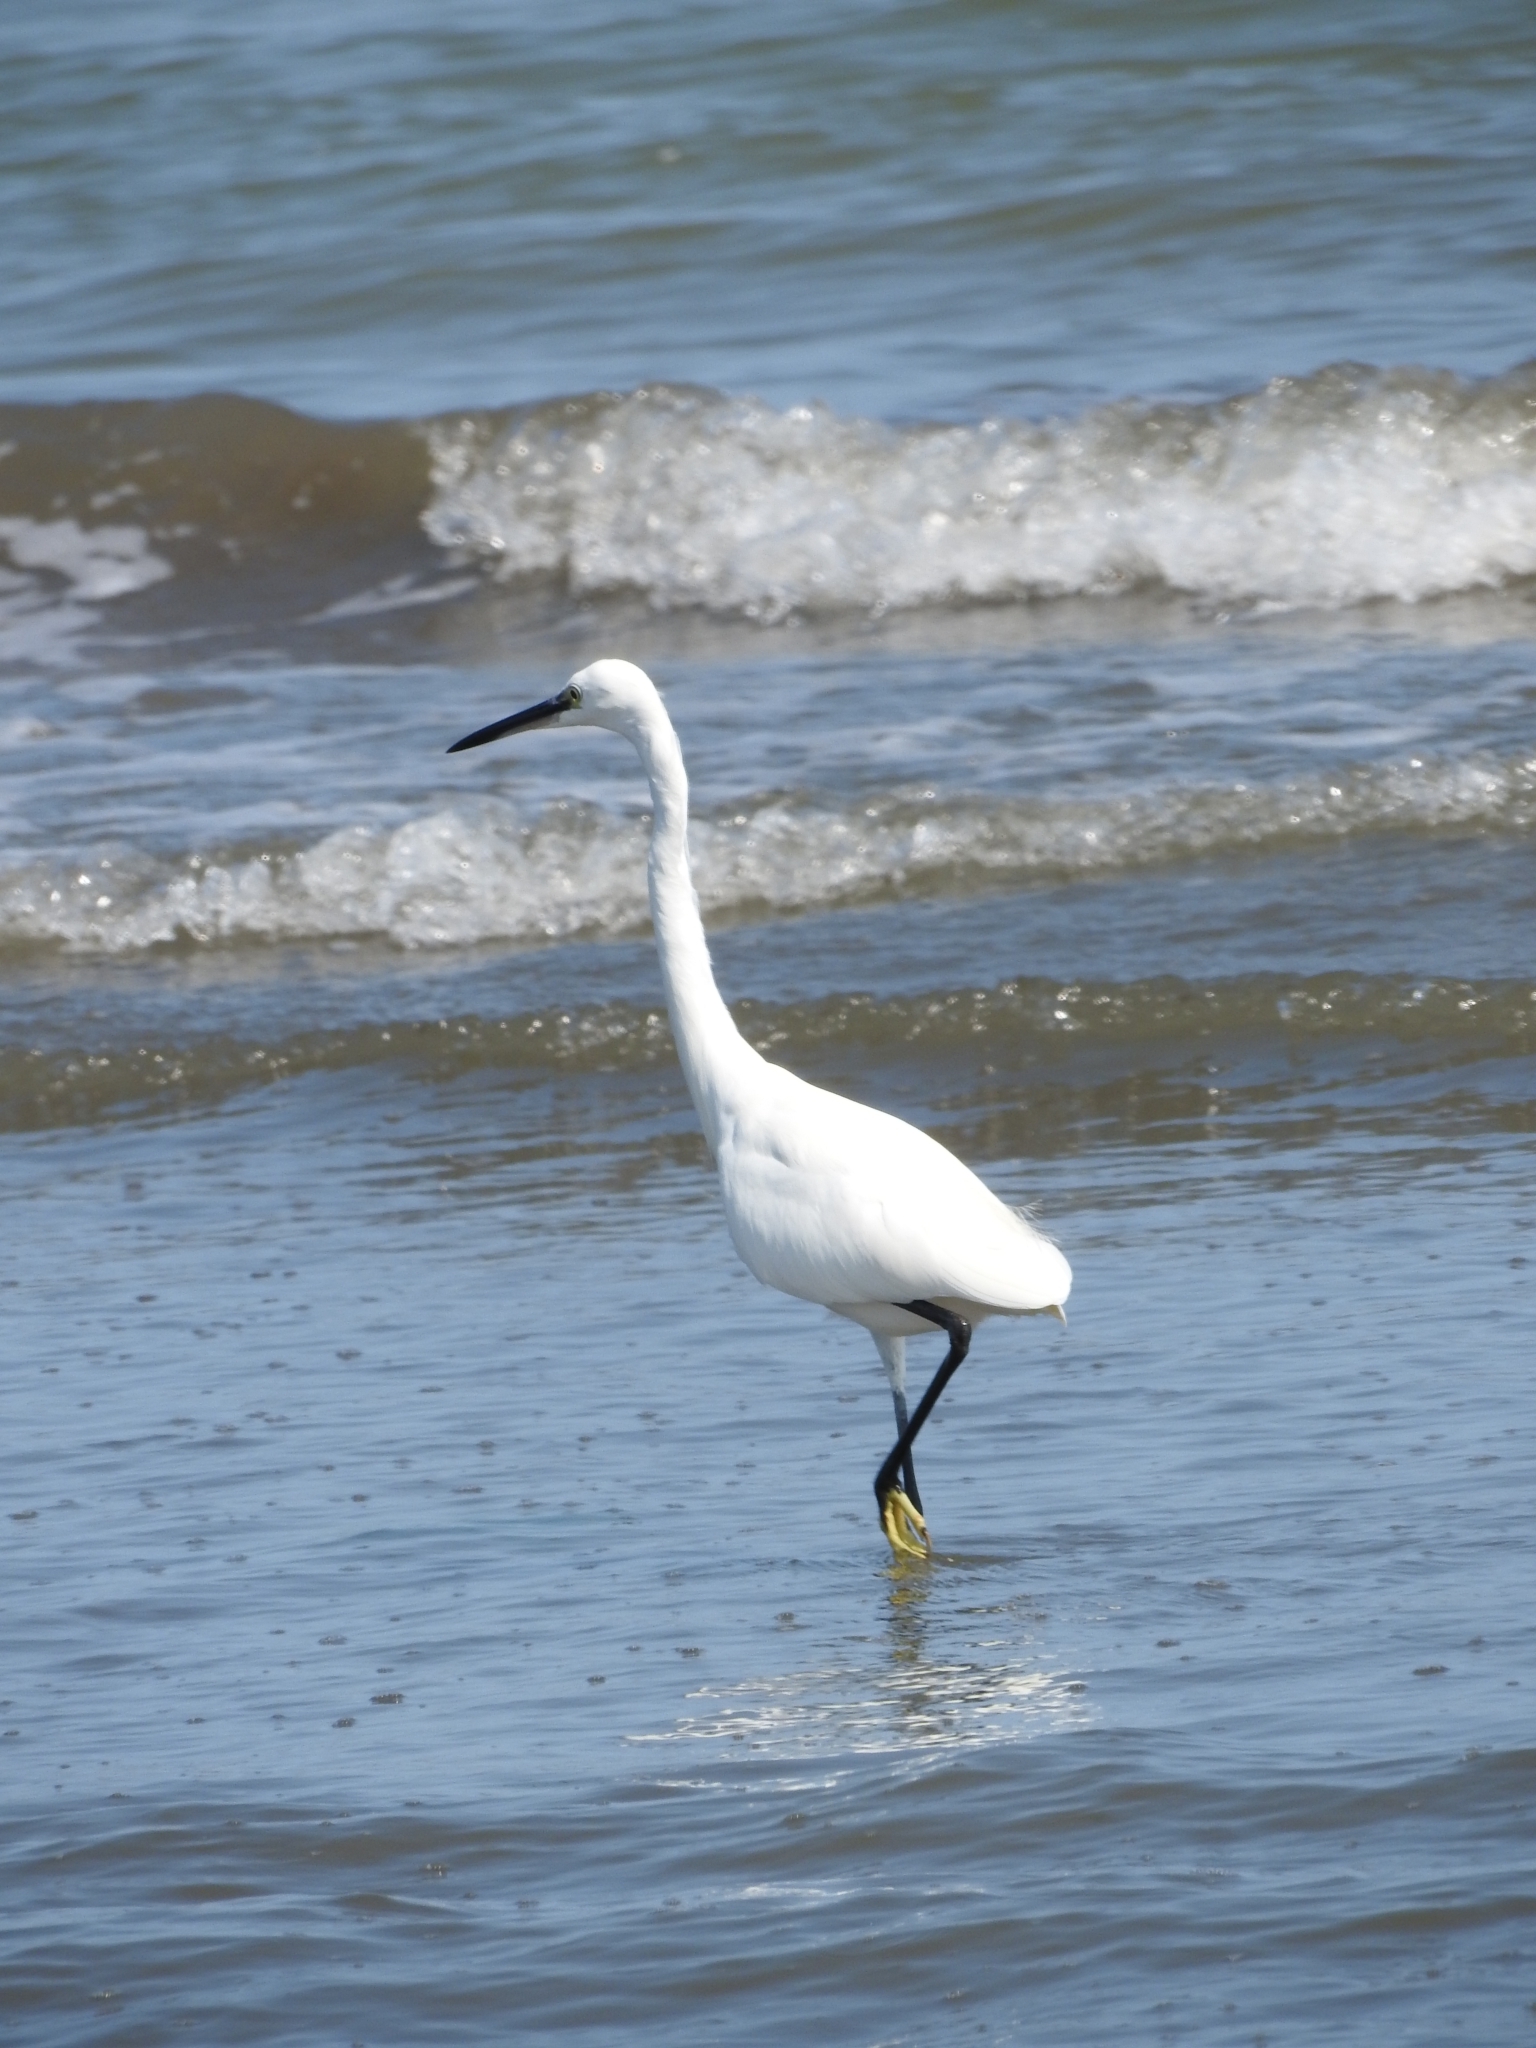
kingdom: Animalia
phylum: Chordata
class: Aves
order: Pelecaniformes
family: Ardeidae
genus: Egretta
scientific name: Egretta garzetta
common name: Little egret
